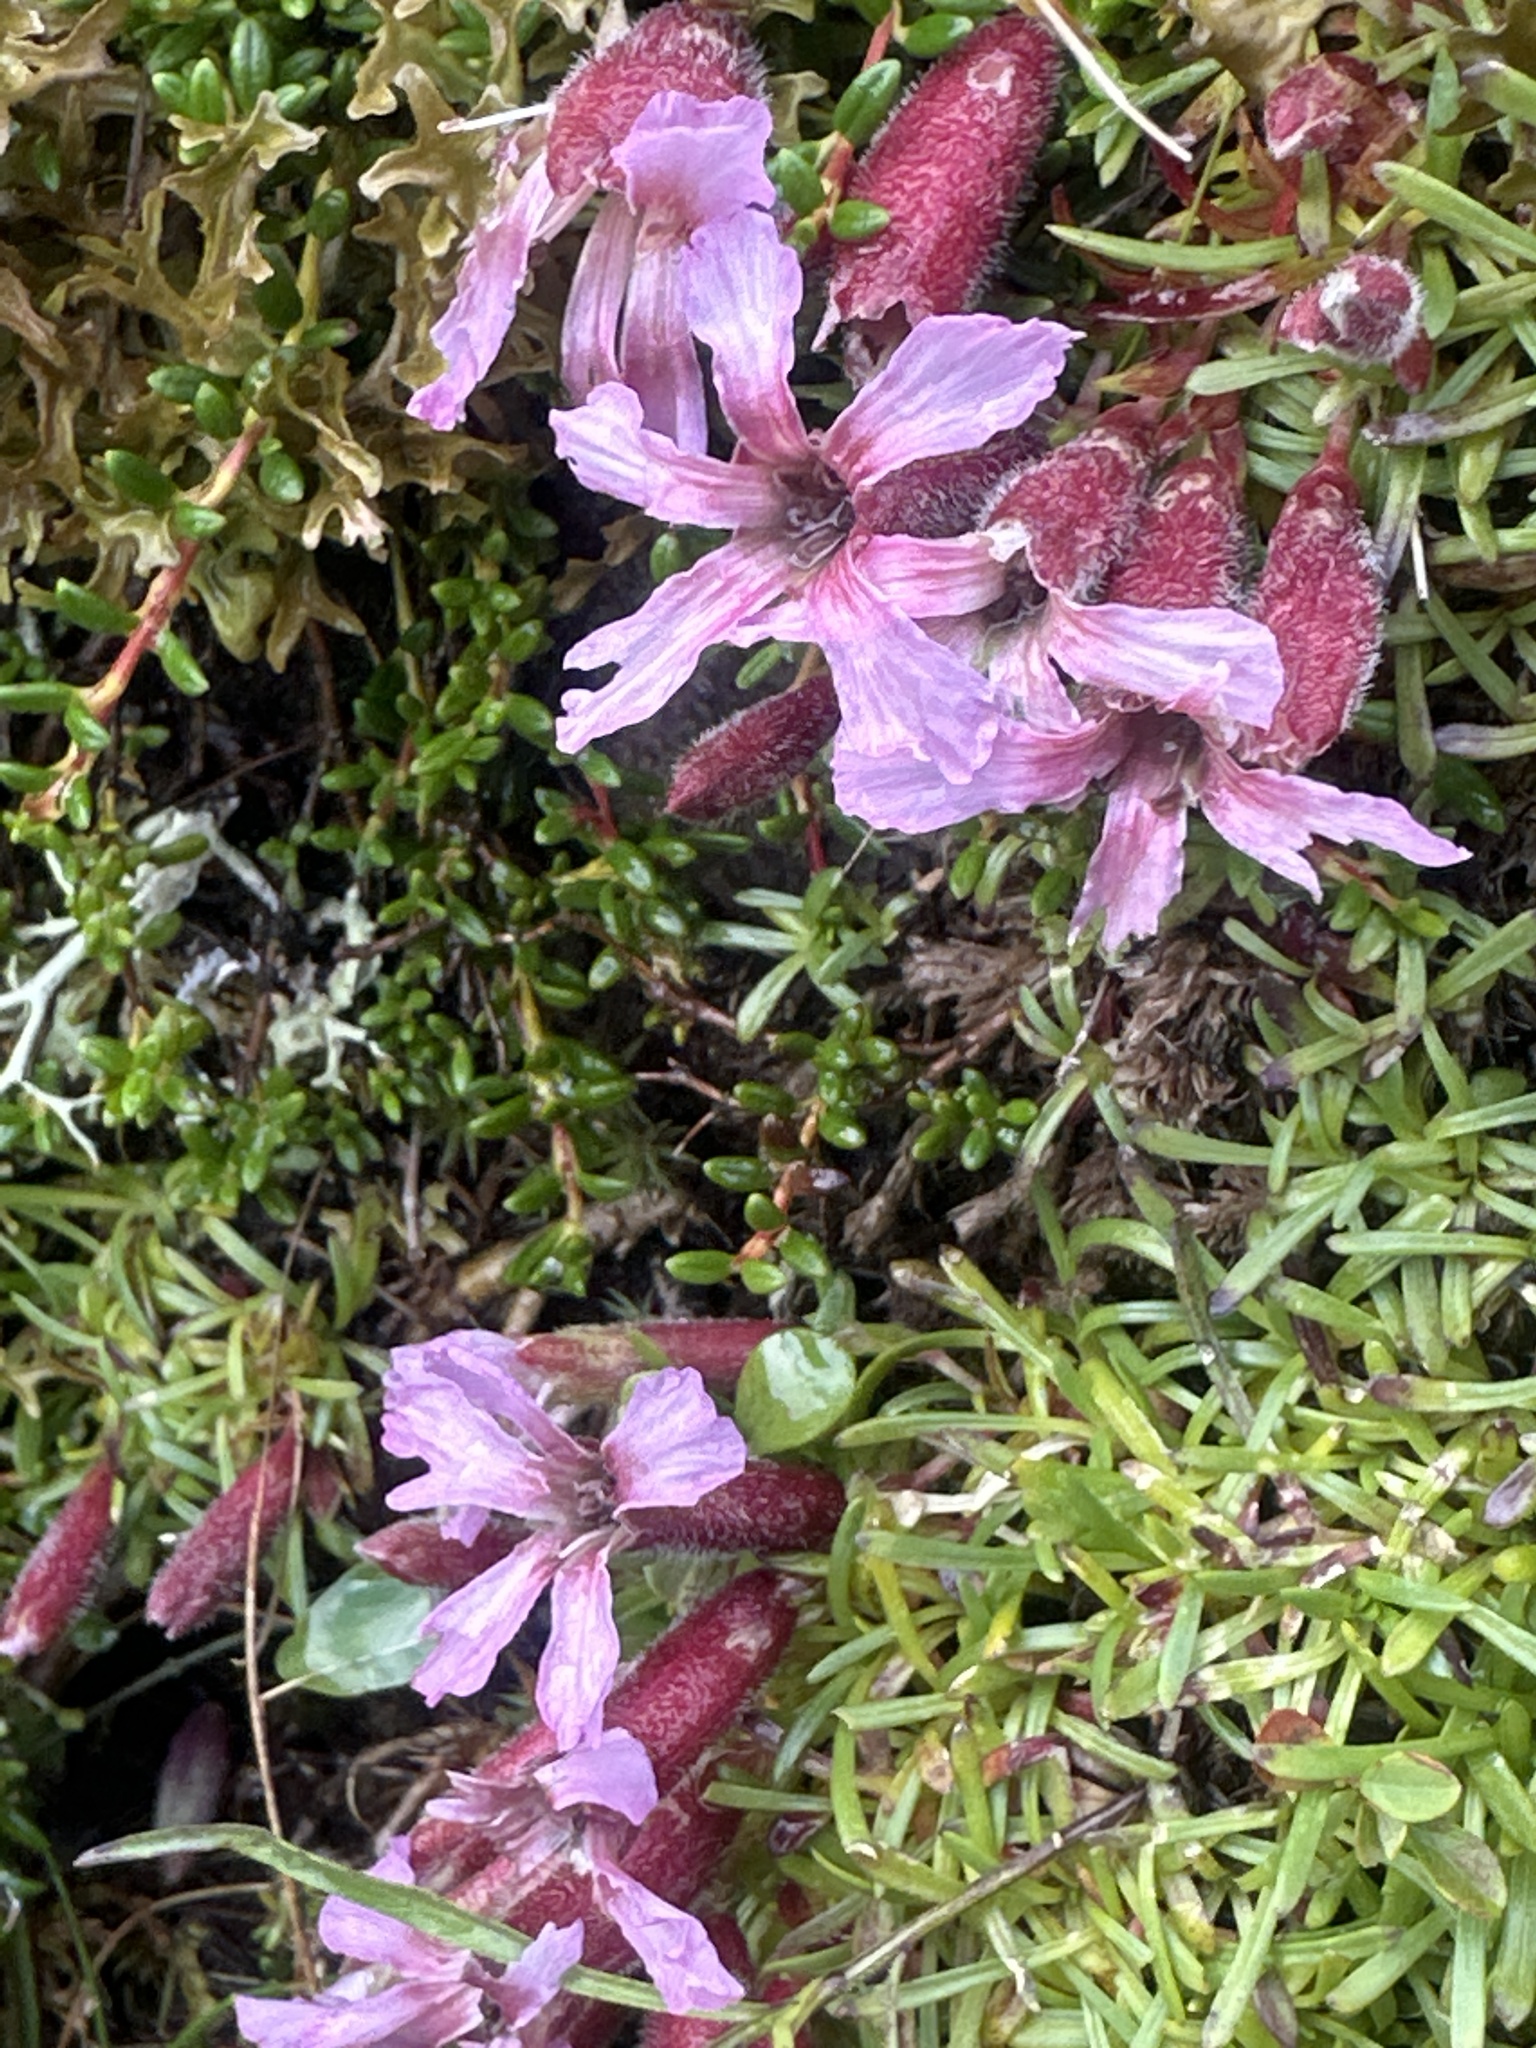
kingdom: Plantae
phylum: Tracheophyta
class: Magnoliopsida
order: Caryophyllales
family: Caryophyllaceae
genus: Saponaria
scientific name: Saponaria pumila
